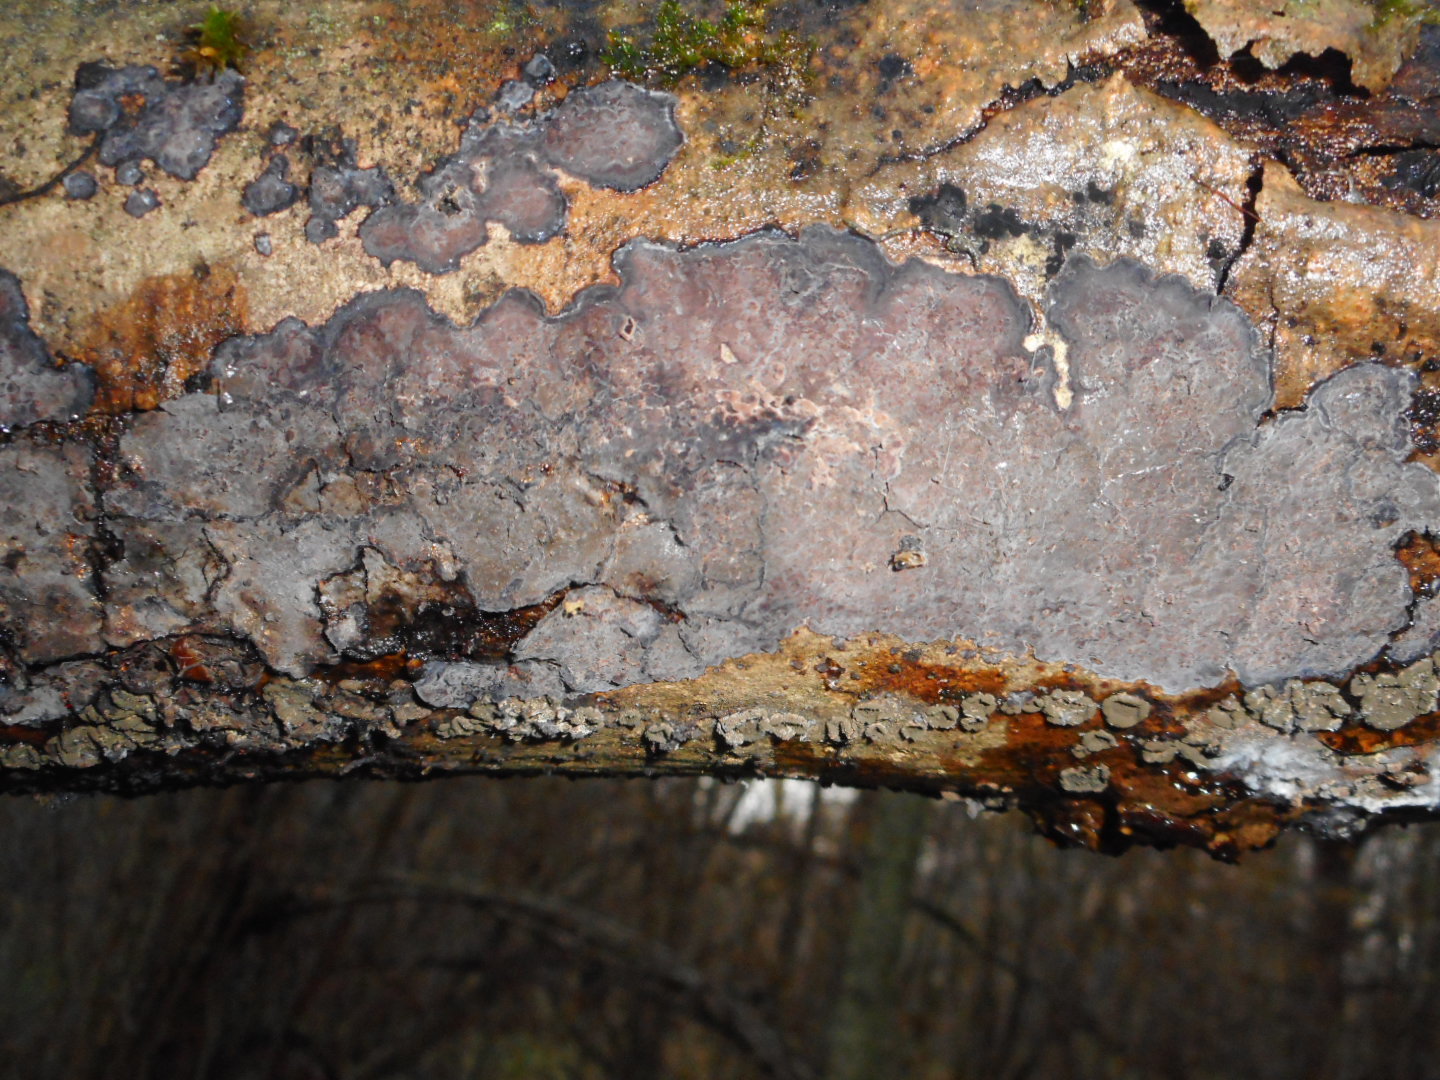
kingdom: Fungi
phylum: Basidiomycota
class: Agaricomycetes
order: Russulales
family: Peniophoraceae
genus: Peniophora
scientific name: Peniophora limitata
